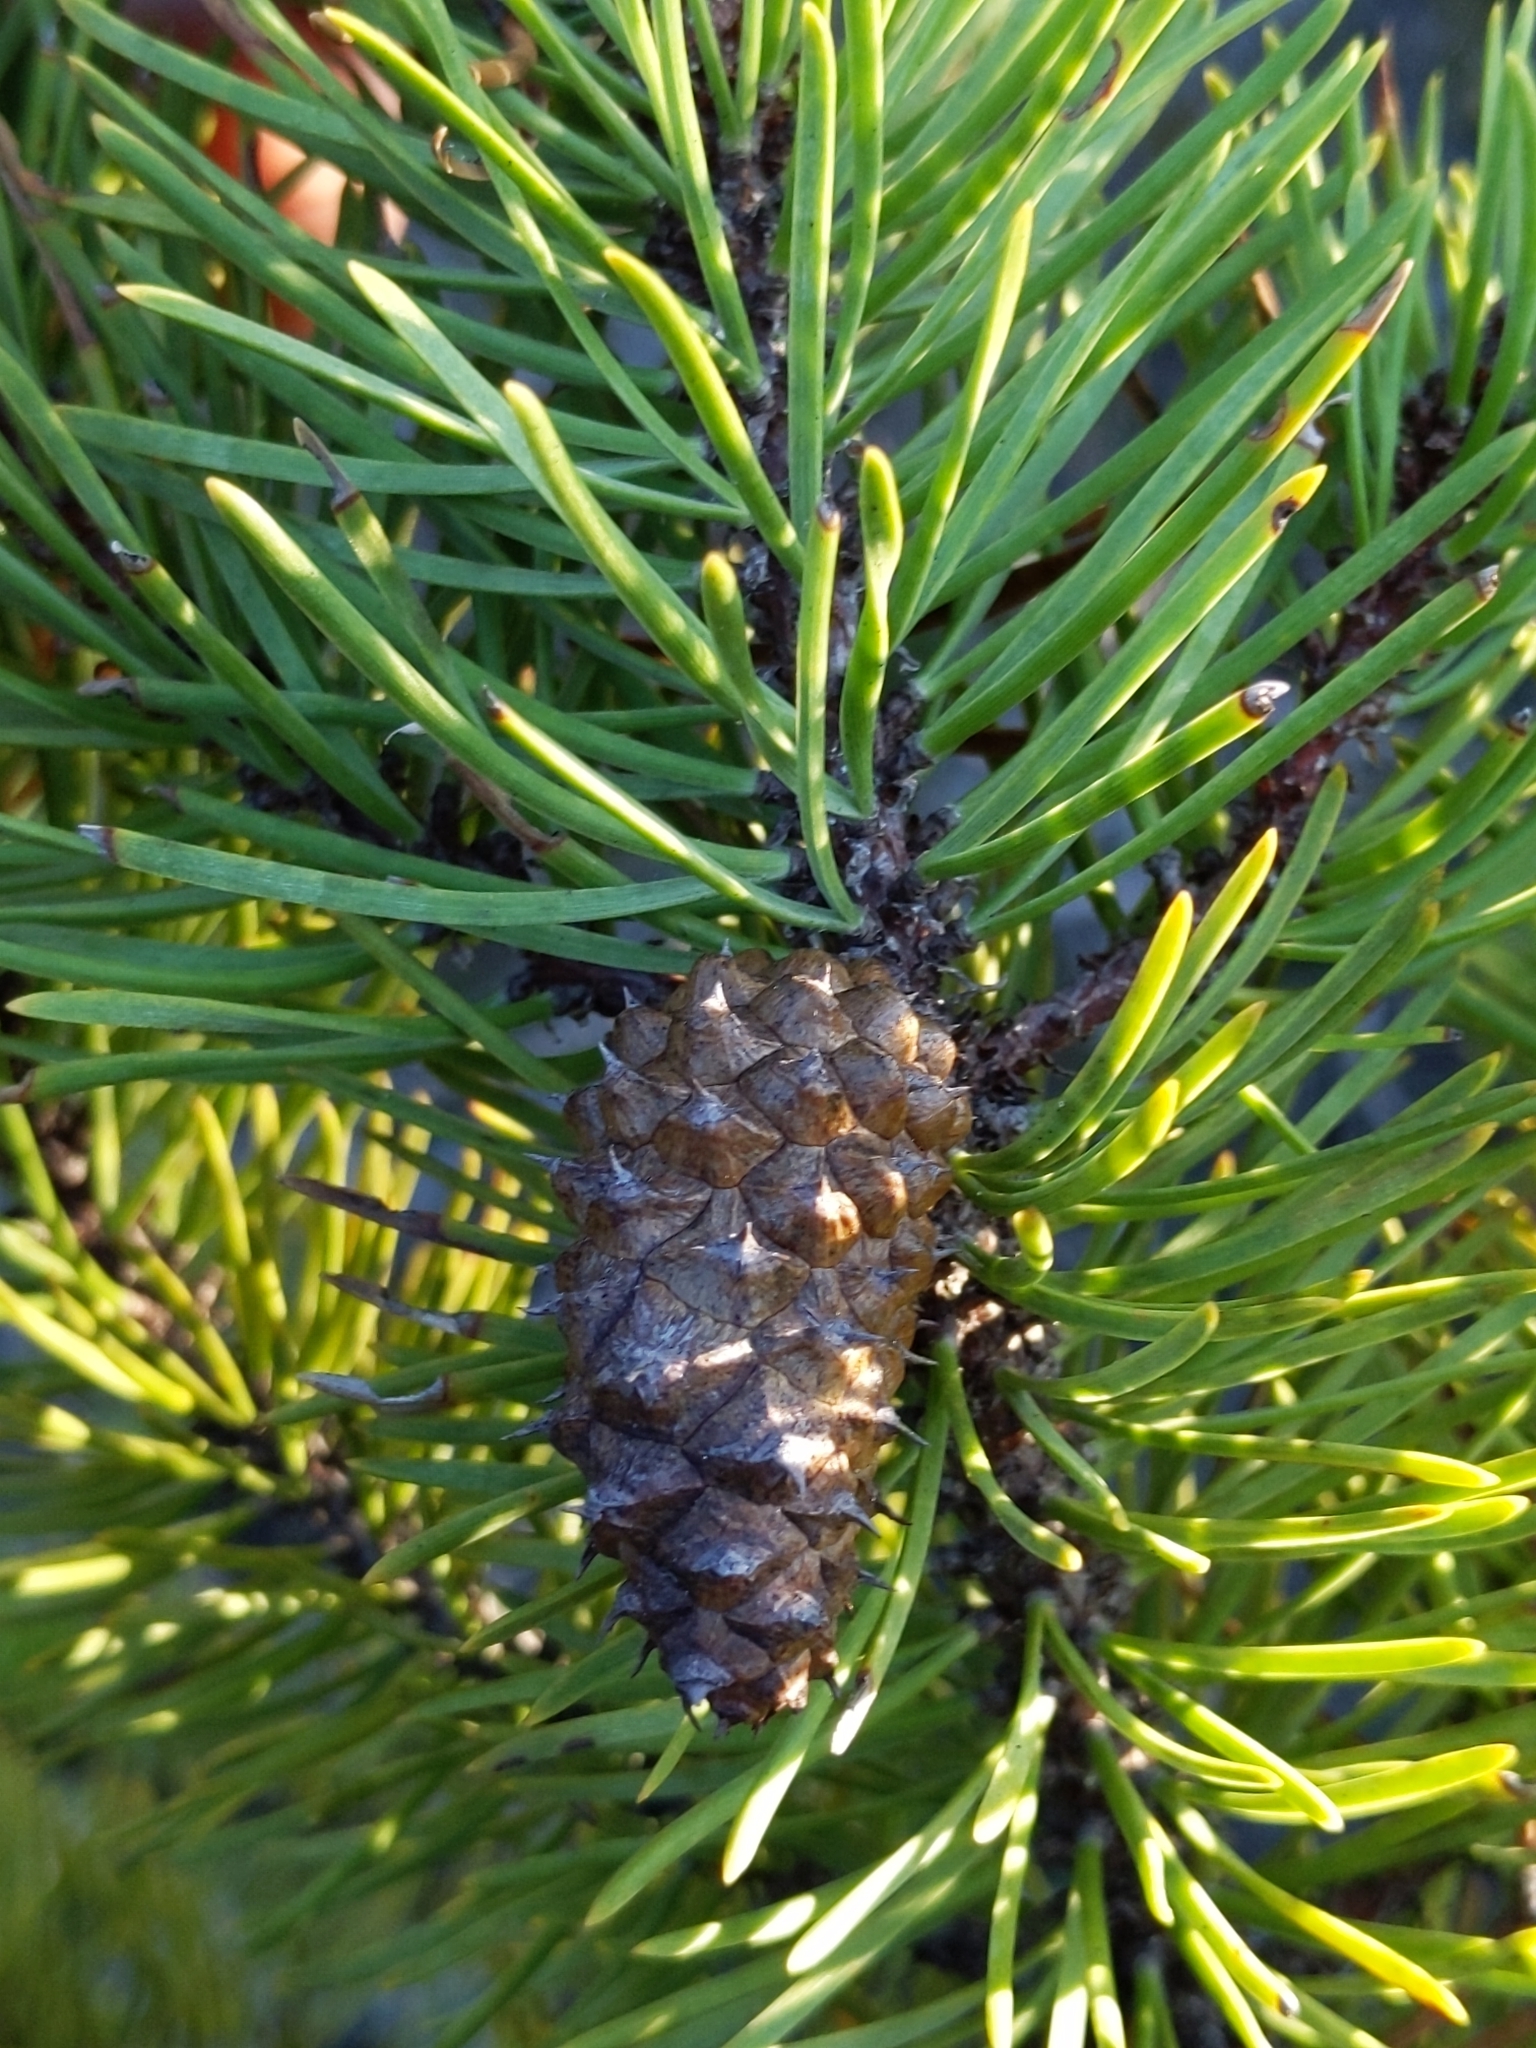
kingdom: Plantae
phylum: Tracheophyta
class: Pinopsida
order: Pinales
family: Pinaceae
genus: Pinus
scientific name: Pinus contorta
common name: Lodgepole pine
